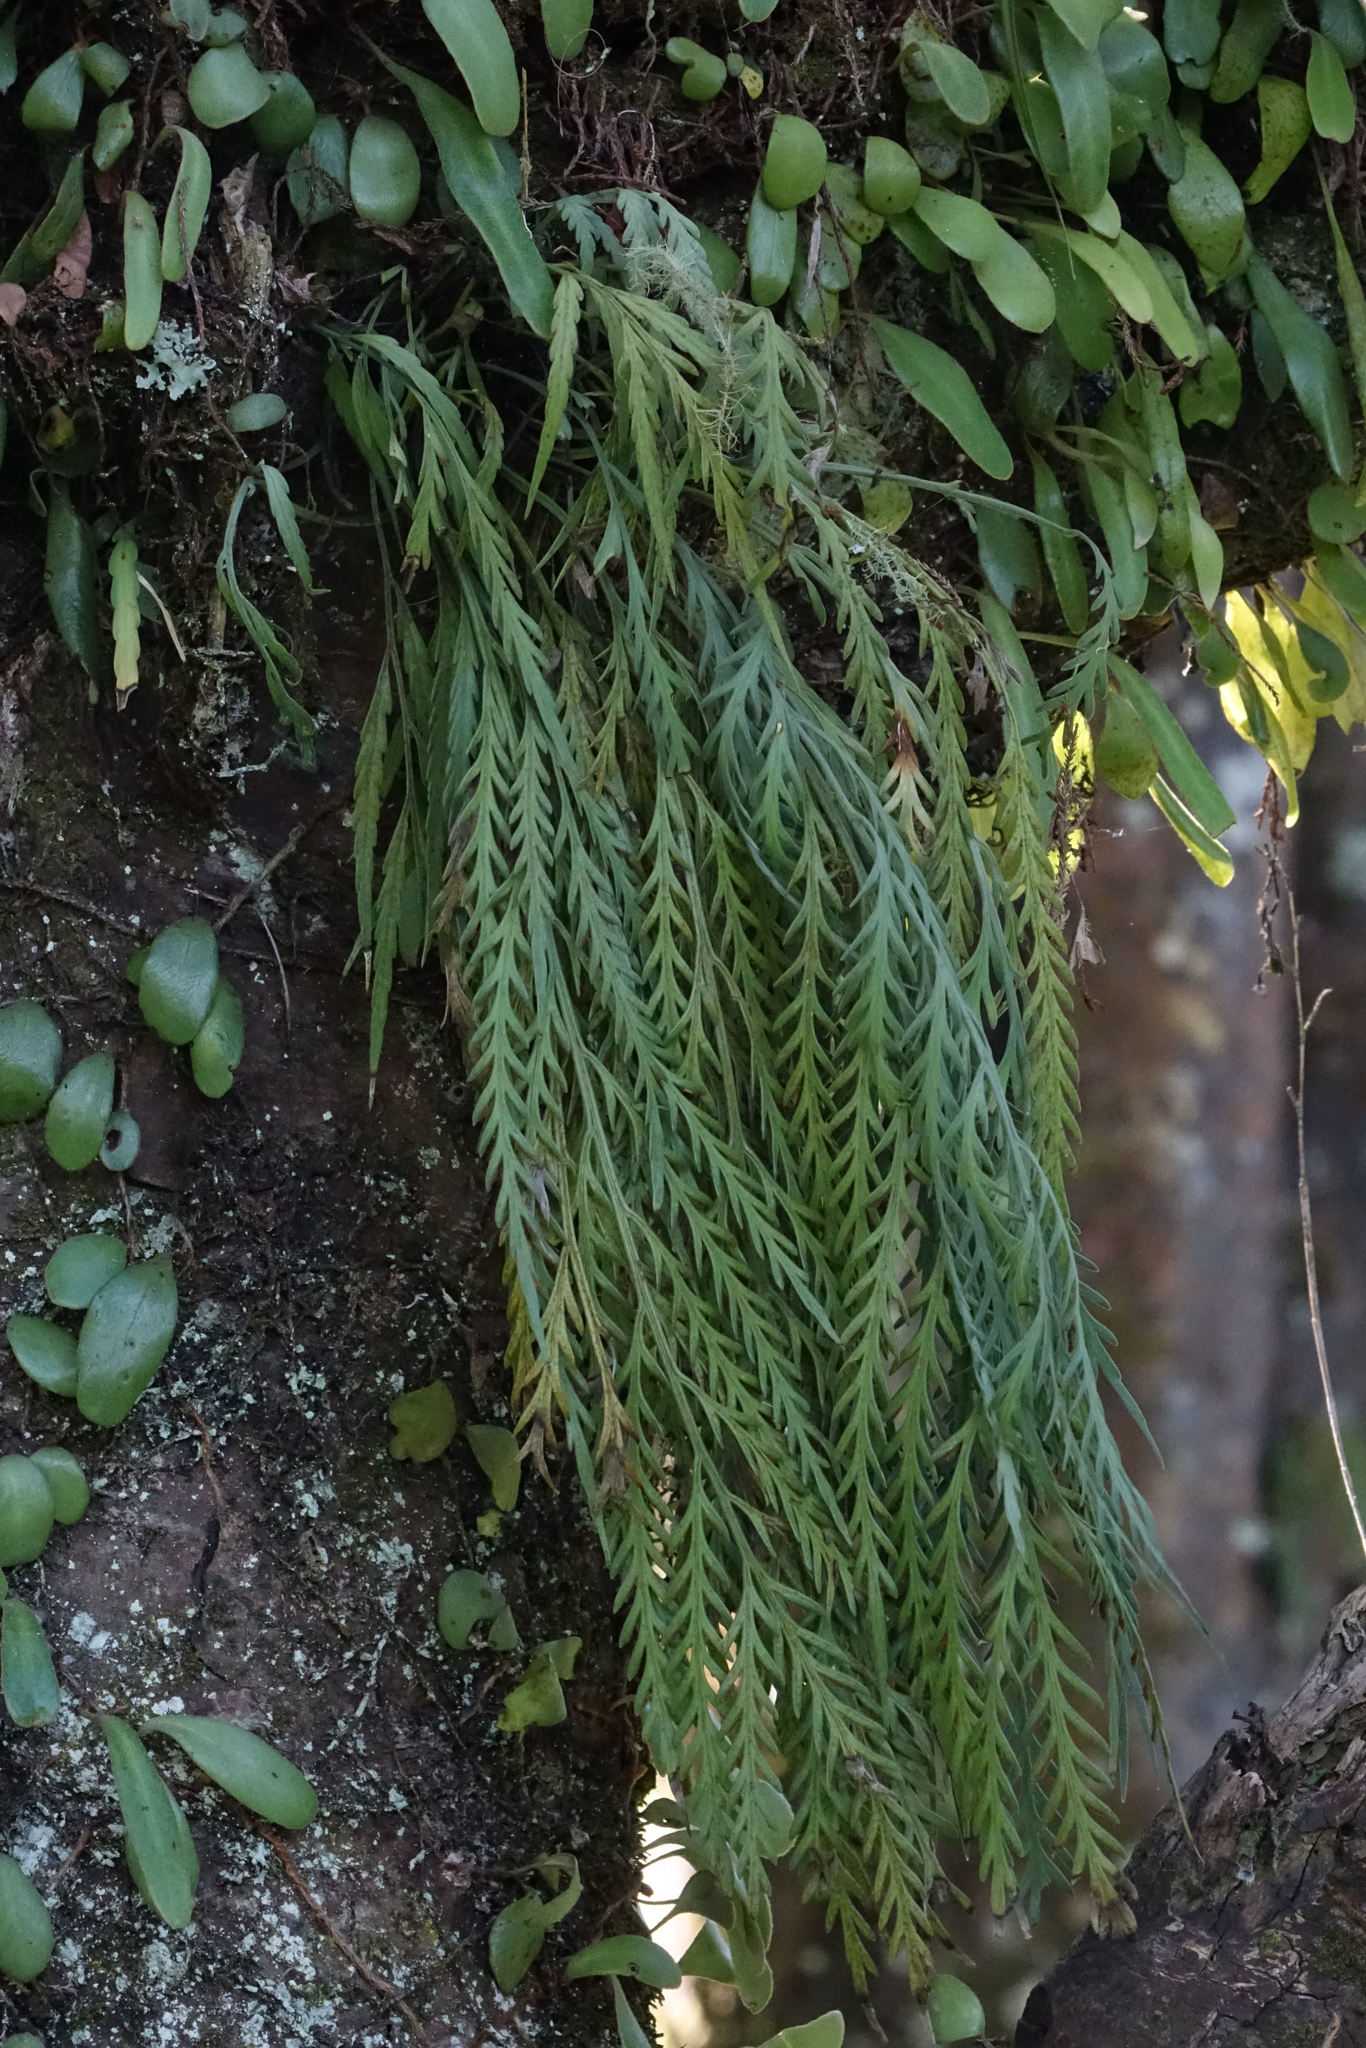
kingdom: Plantae
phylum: Tracheophyta
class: Polypodiopsida
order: Polypodiales
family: Aspleniaceae
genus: Asplenium
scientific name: Asplenium flaccidum
